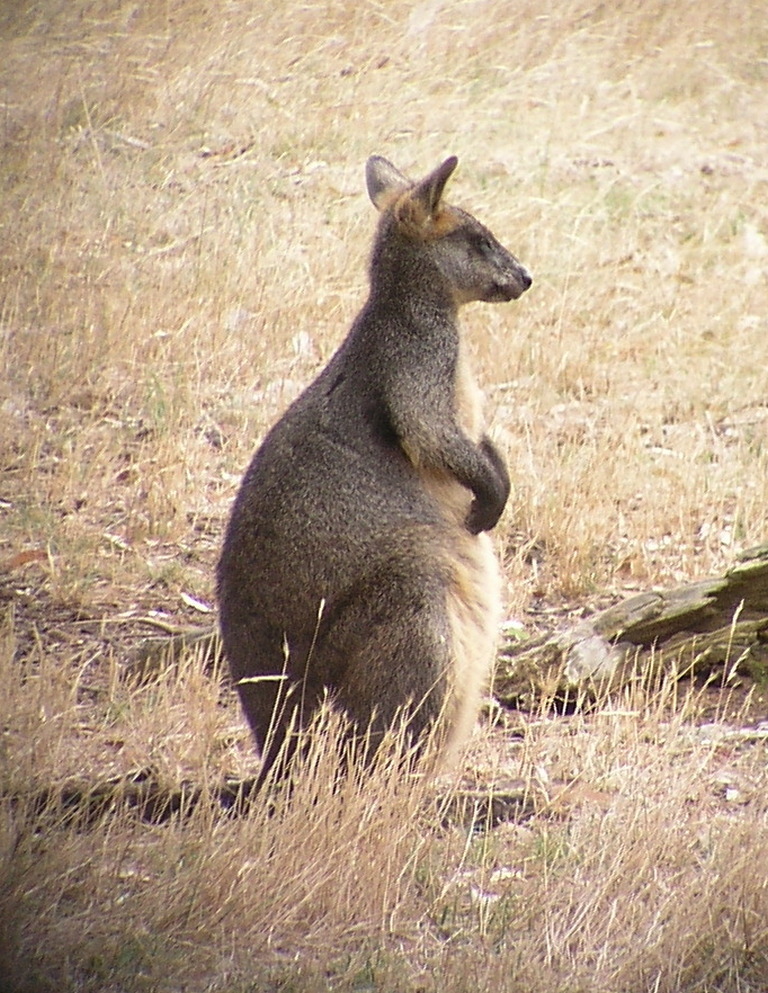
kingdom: Animalia
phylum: Chordata
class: Mammalia
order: Diprotodontia
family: Macropodidae
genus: Wallabia
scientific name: Wallabia bicolor
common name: Swamp wallaby
